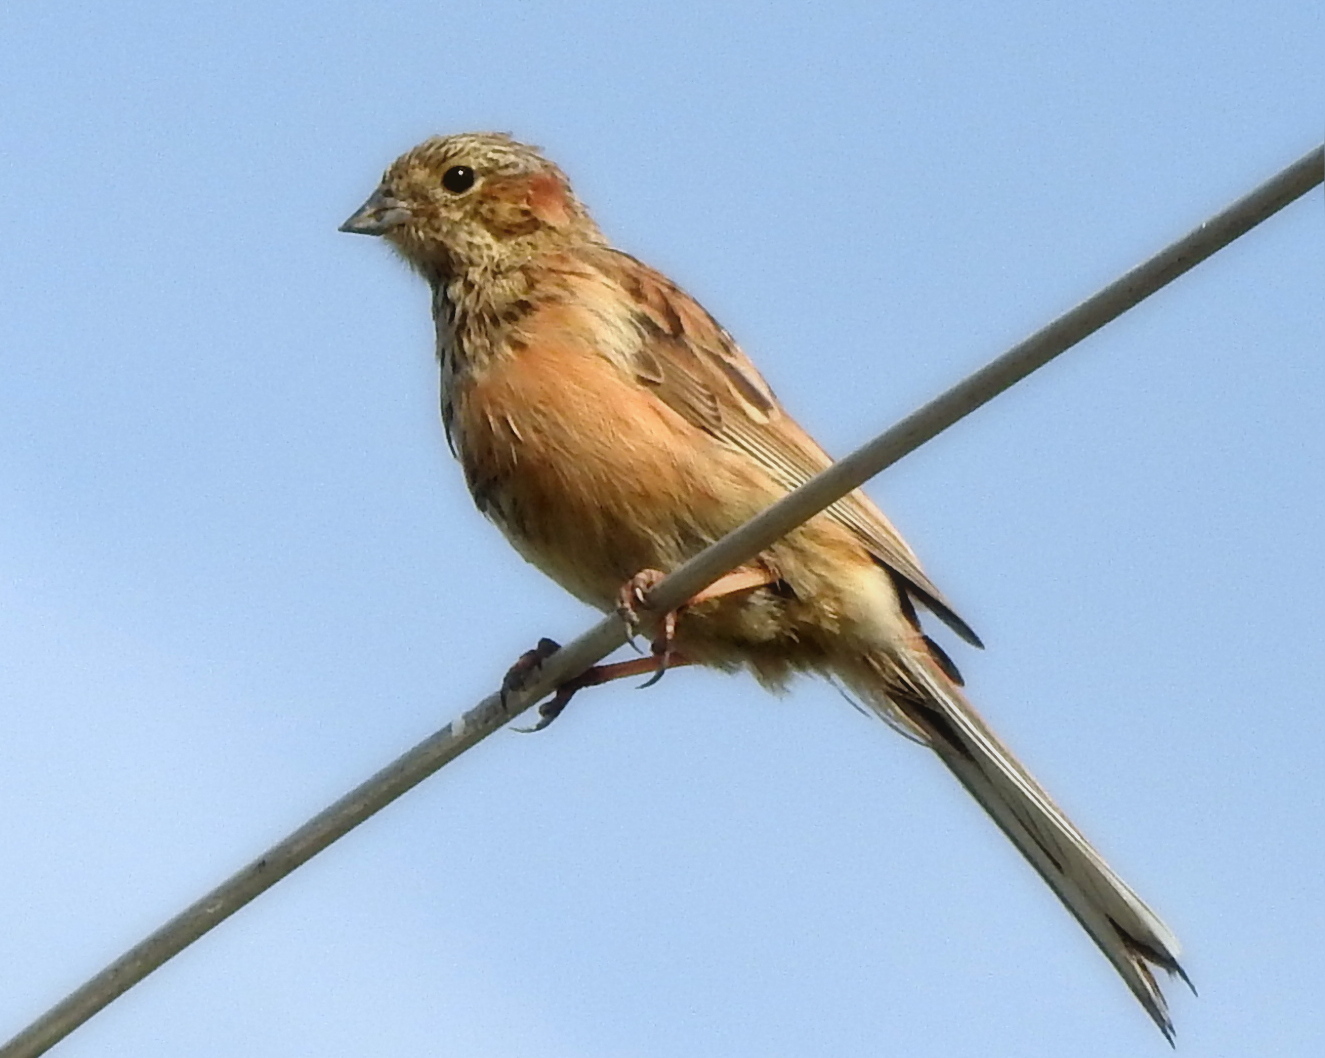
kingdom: Animalia
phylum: Chordata
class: Aves
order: Passeriformes
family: Emberizidae
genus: Emberiza
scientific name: Emberiza cioides
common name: Meadow bunting
